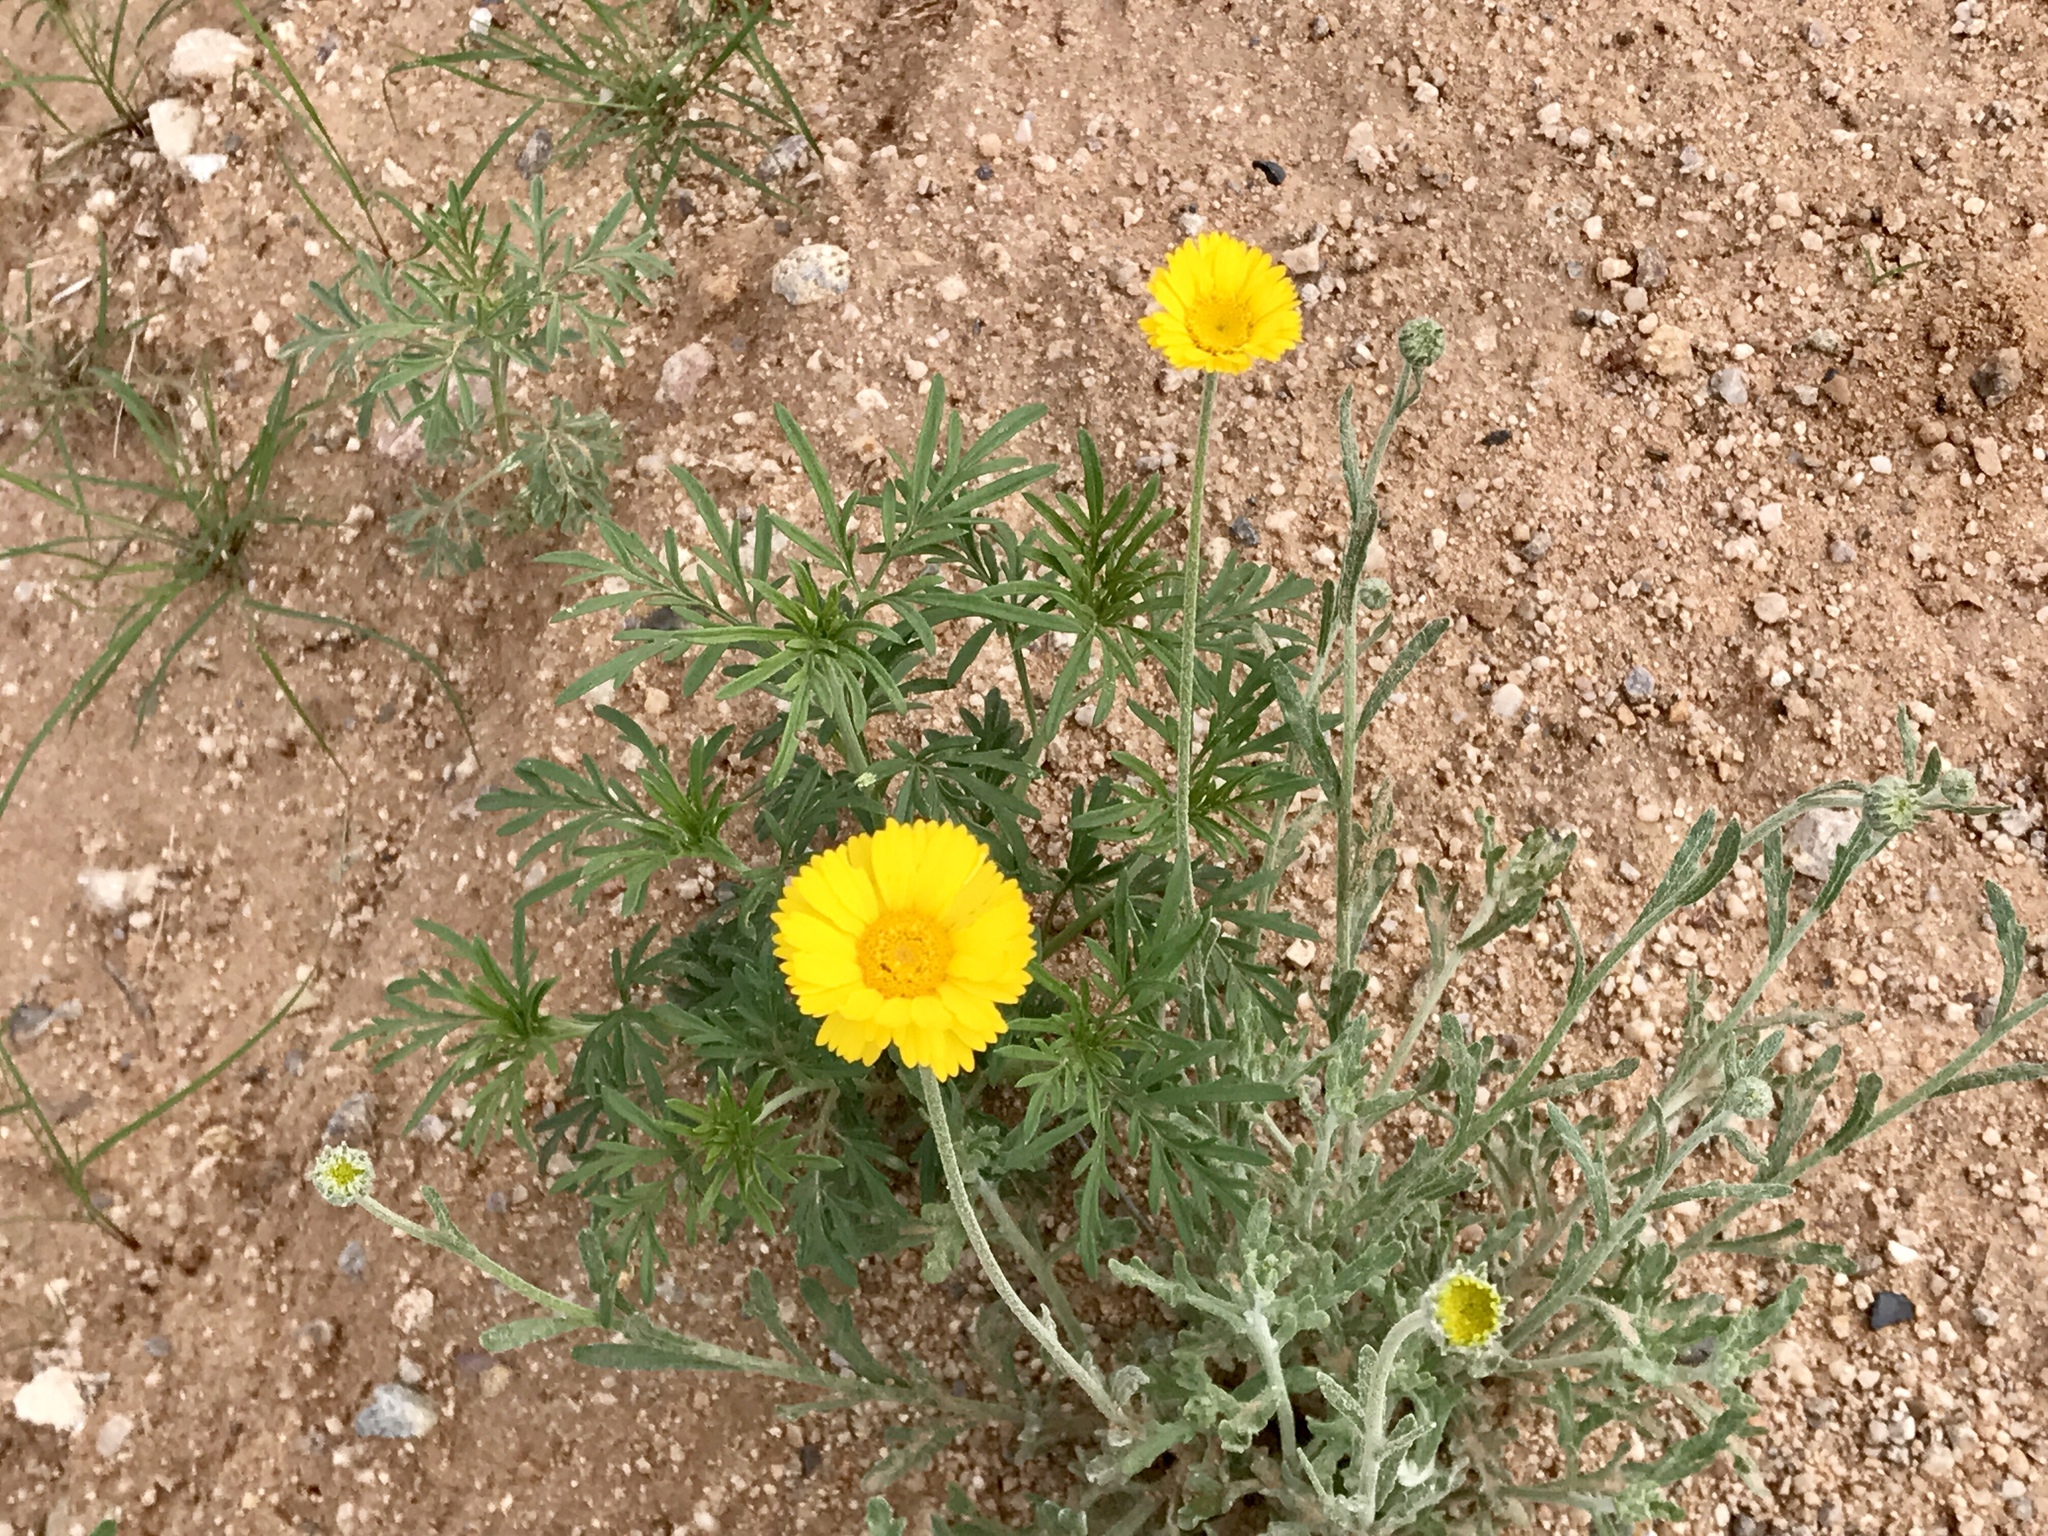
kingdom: Plantae
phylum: Tracheophyta
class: Magnoliopsida
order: Asterales
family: Asteraceae
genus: Baileya
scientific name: Baileya multiradiata
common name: Desert-marigold
